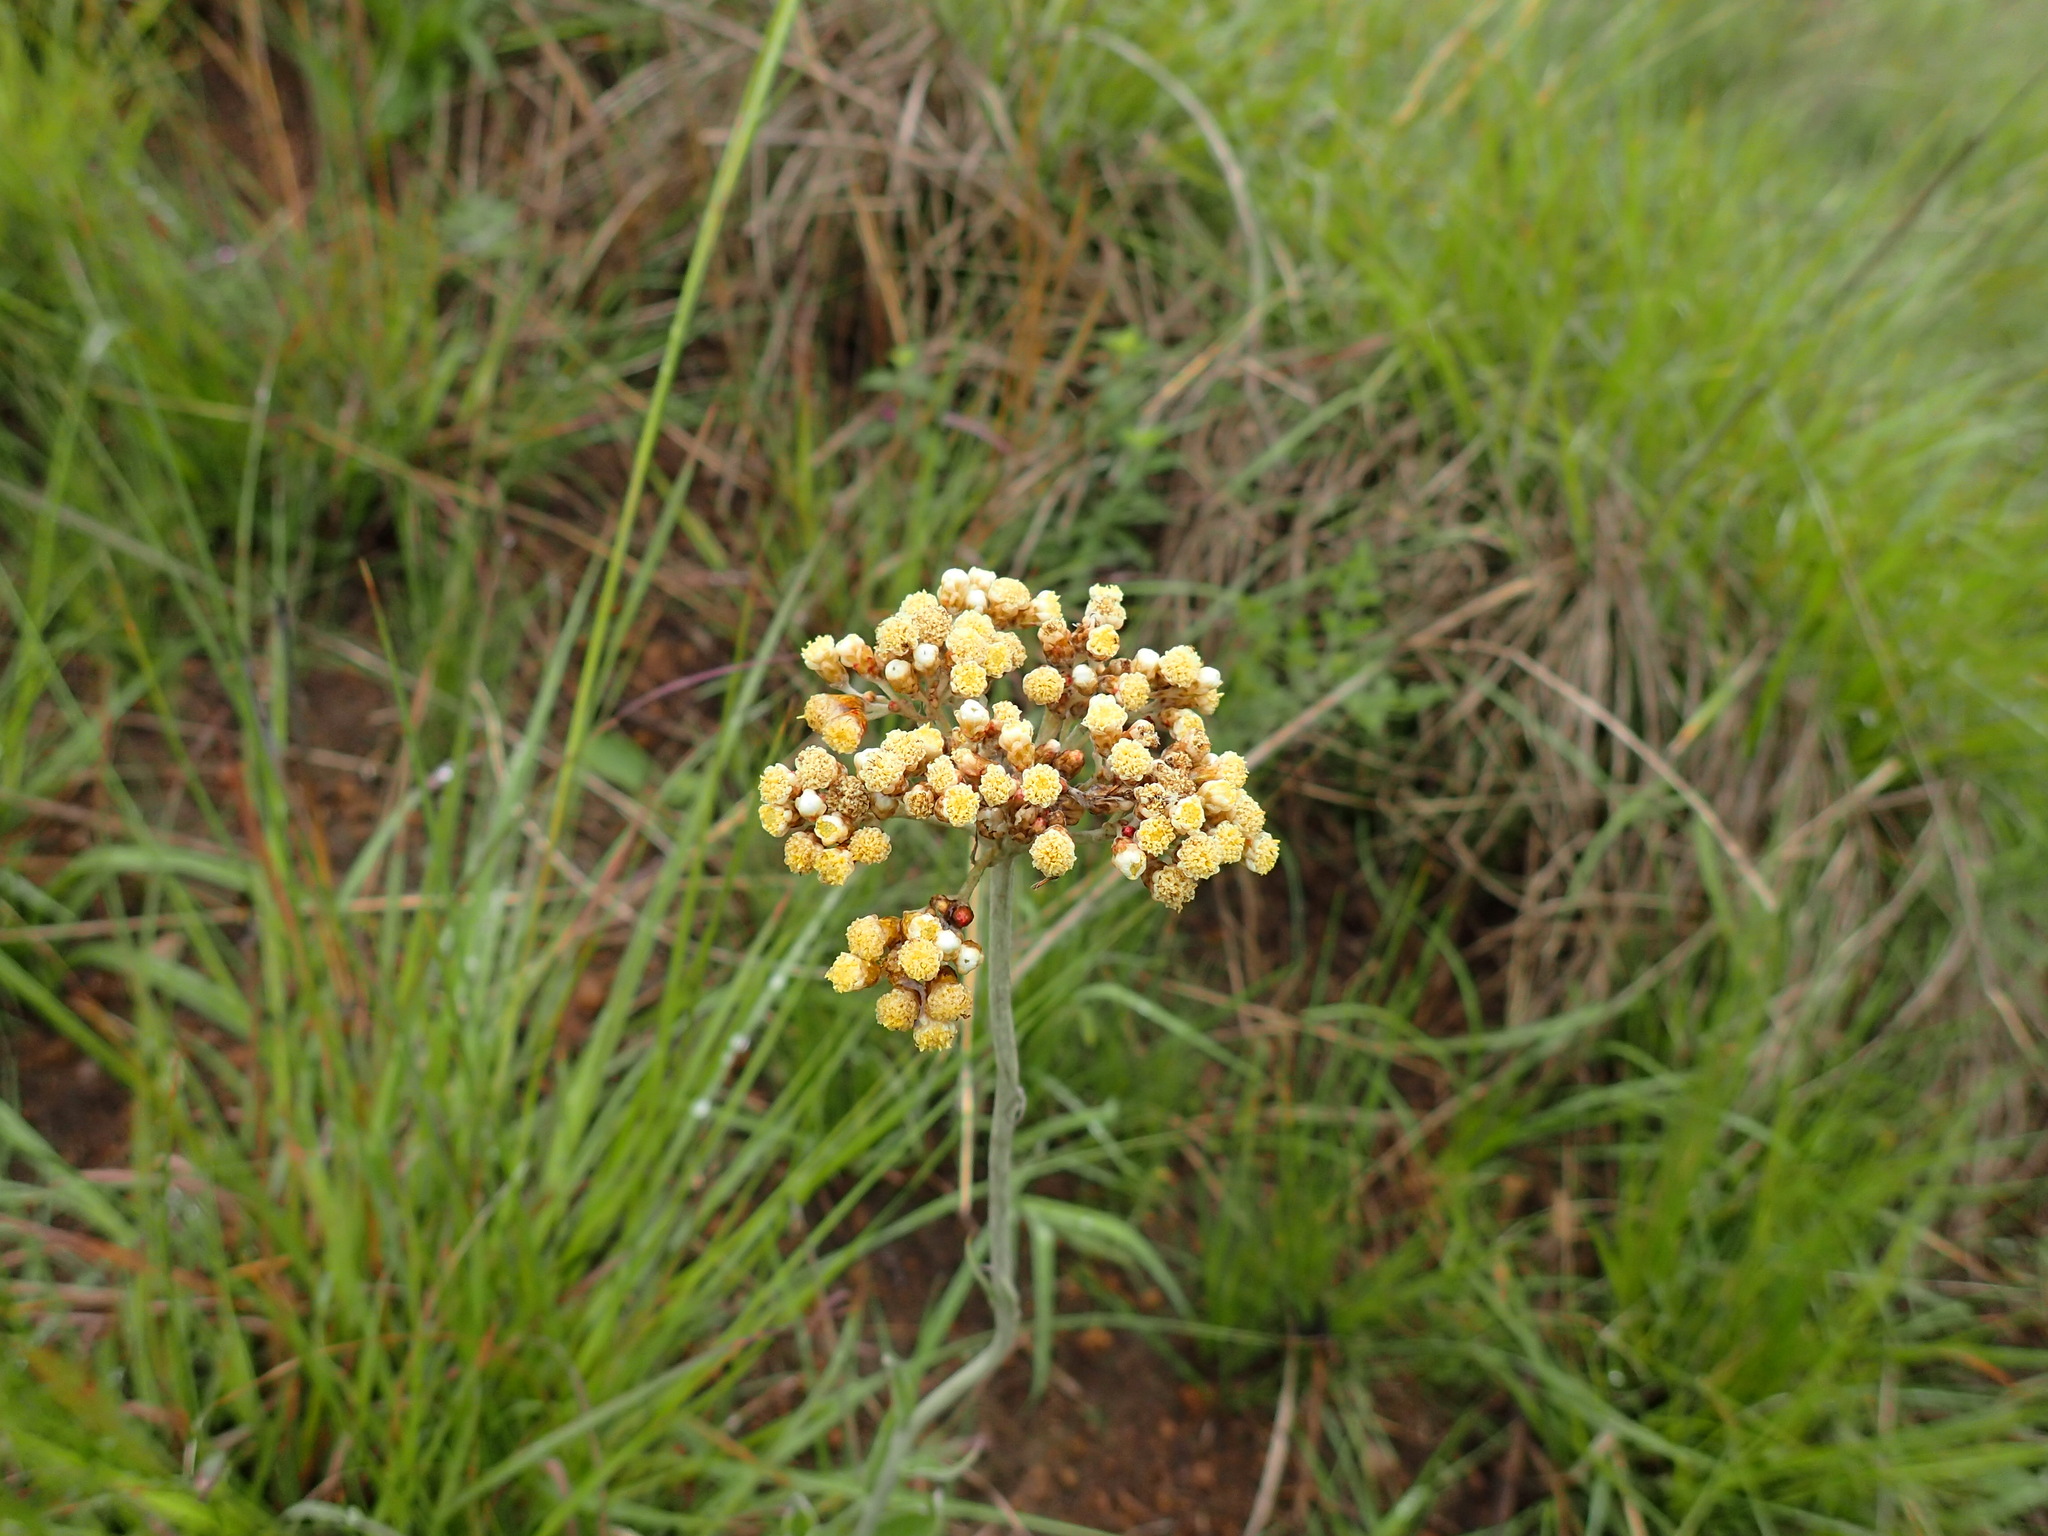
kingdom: Plantae
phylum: Tracheophyta
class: Magnoliopsida
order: Asterales
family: Asteraceae
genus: Helichrysum
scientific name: Helichrysum nudifolium
